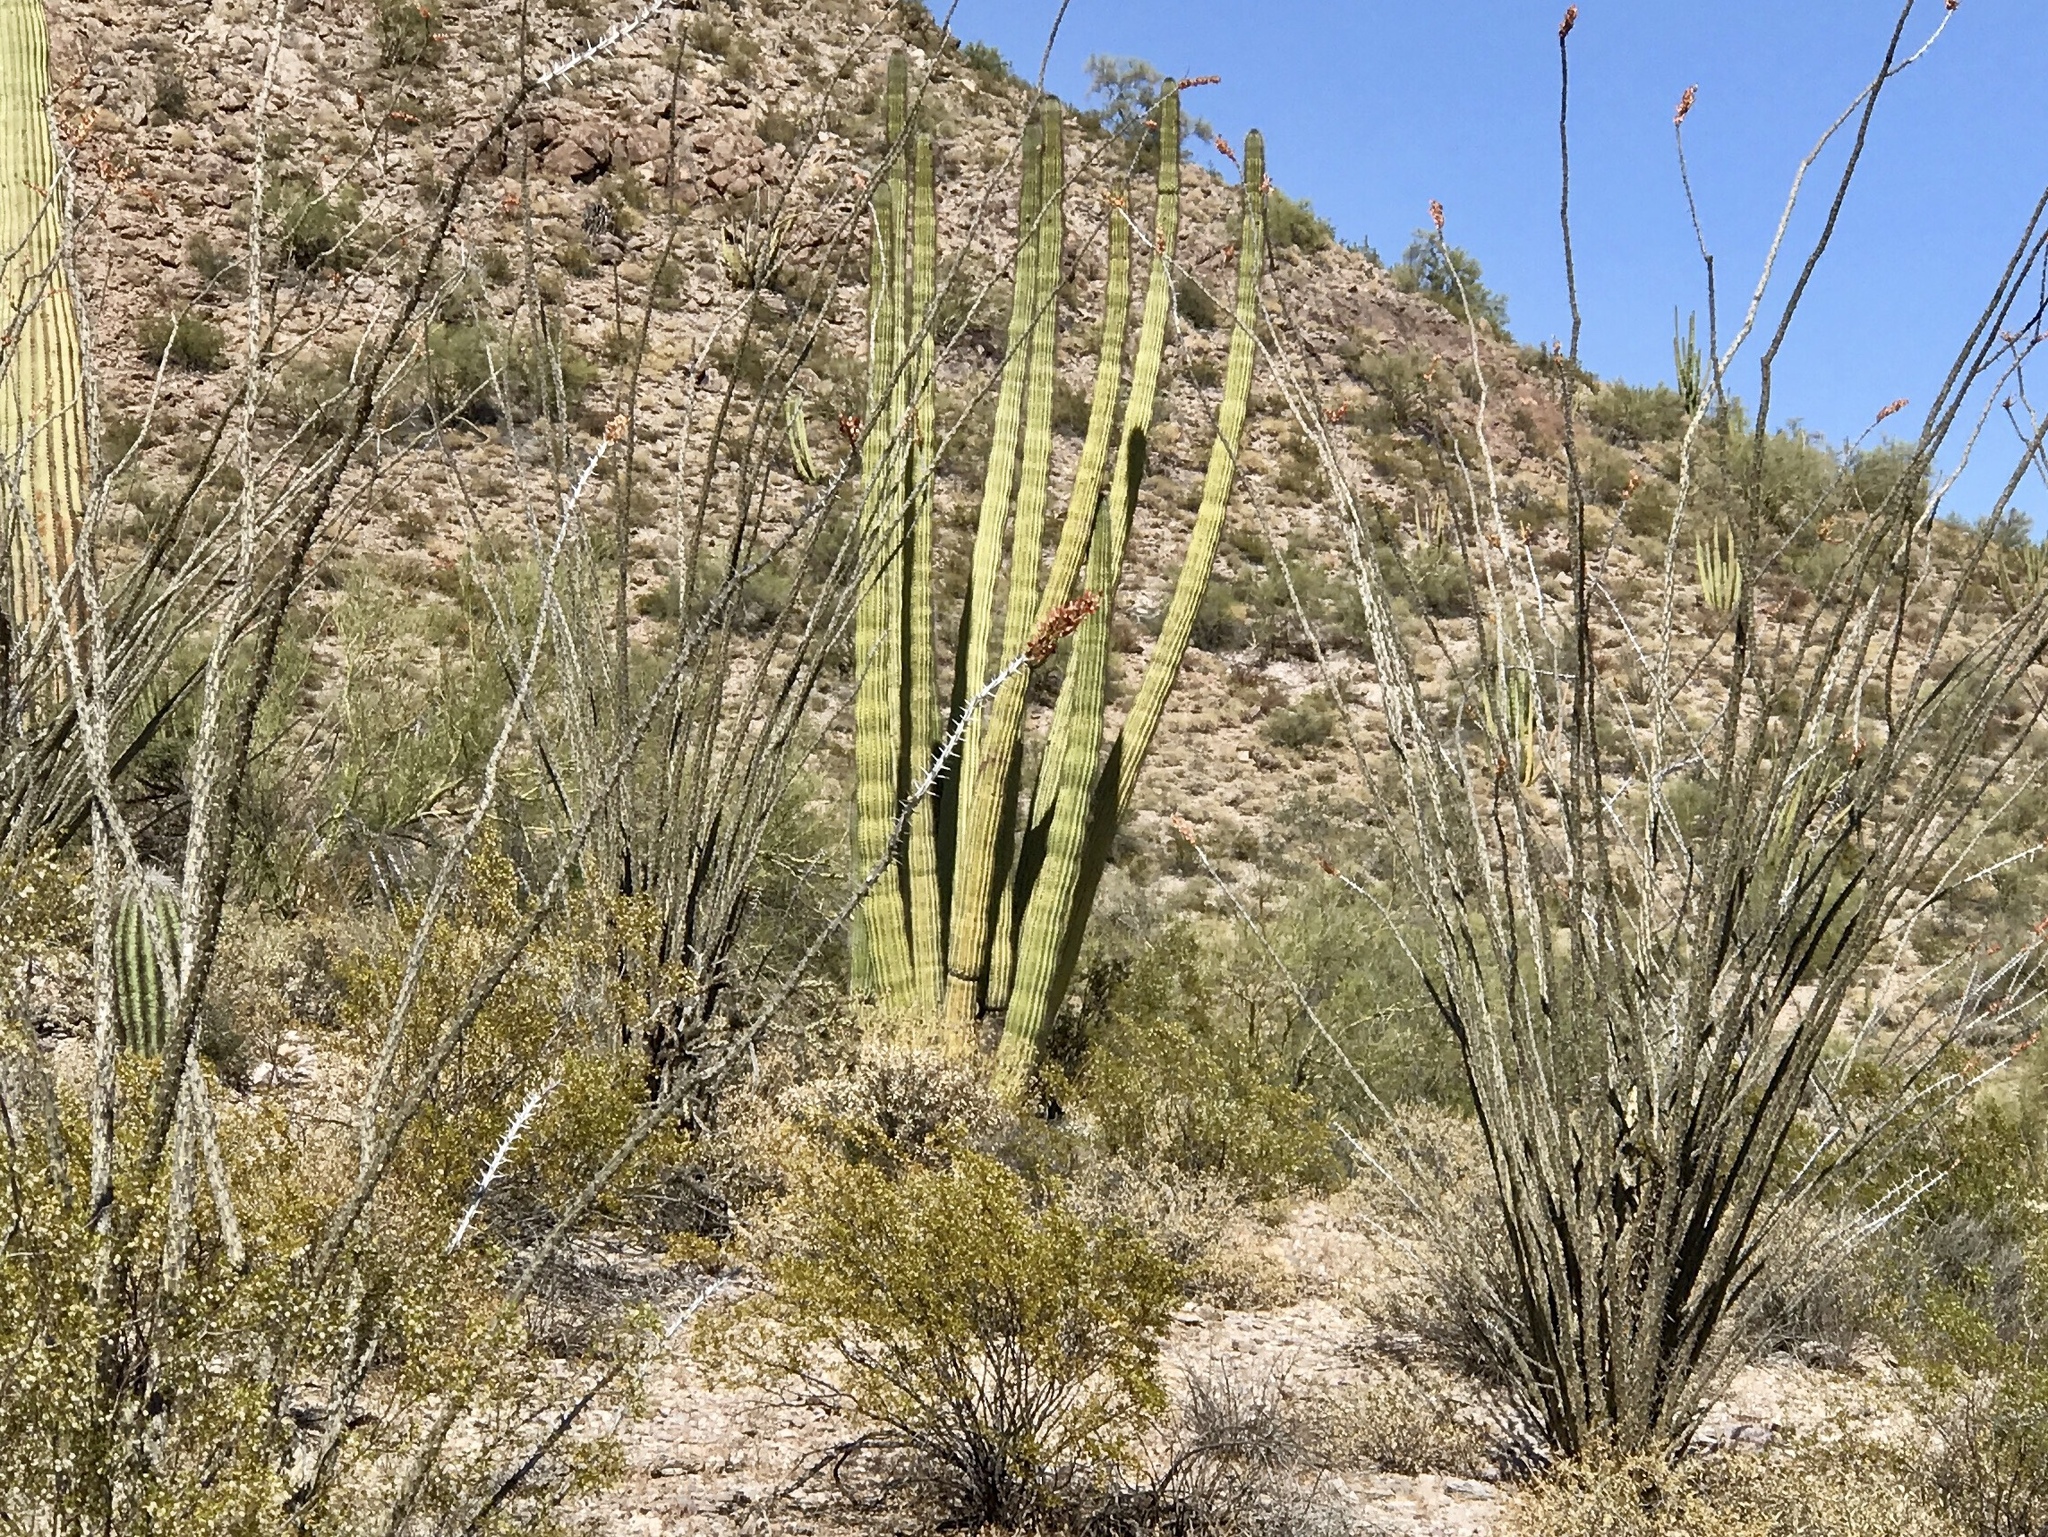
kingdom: Plantae
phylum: Tracheophyta
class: Magnoliopsida
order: Caryophyllales
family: Cactaceae
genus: Stenocereus
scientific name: Stenocereus thurberi
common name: Organ pipe cactus
